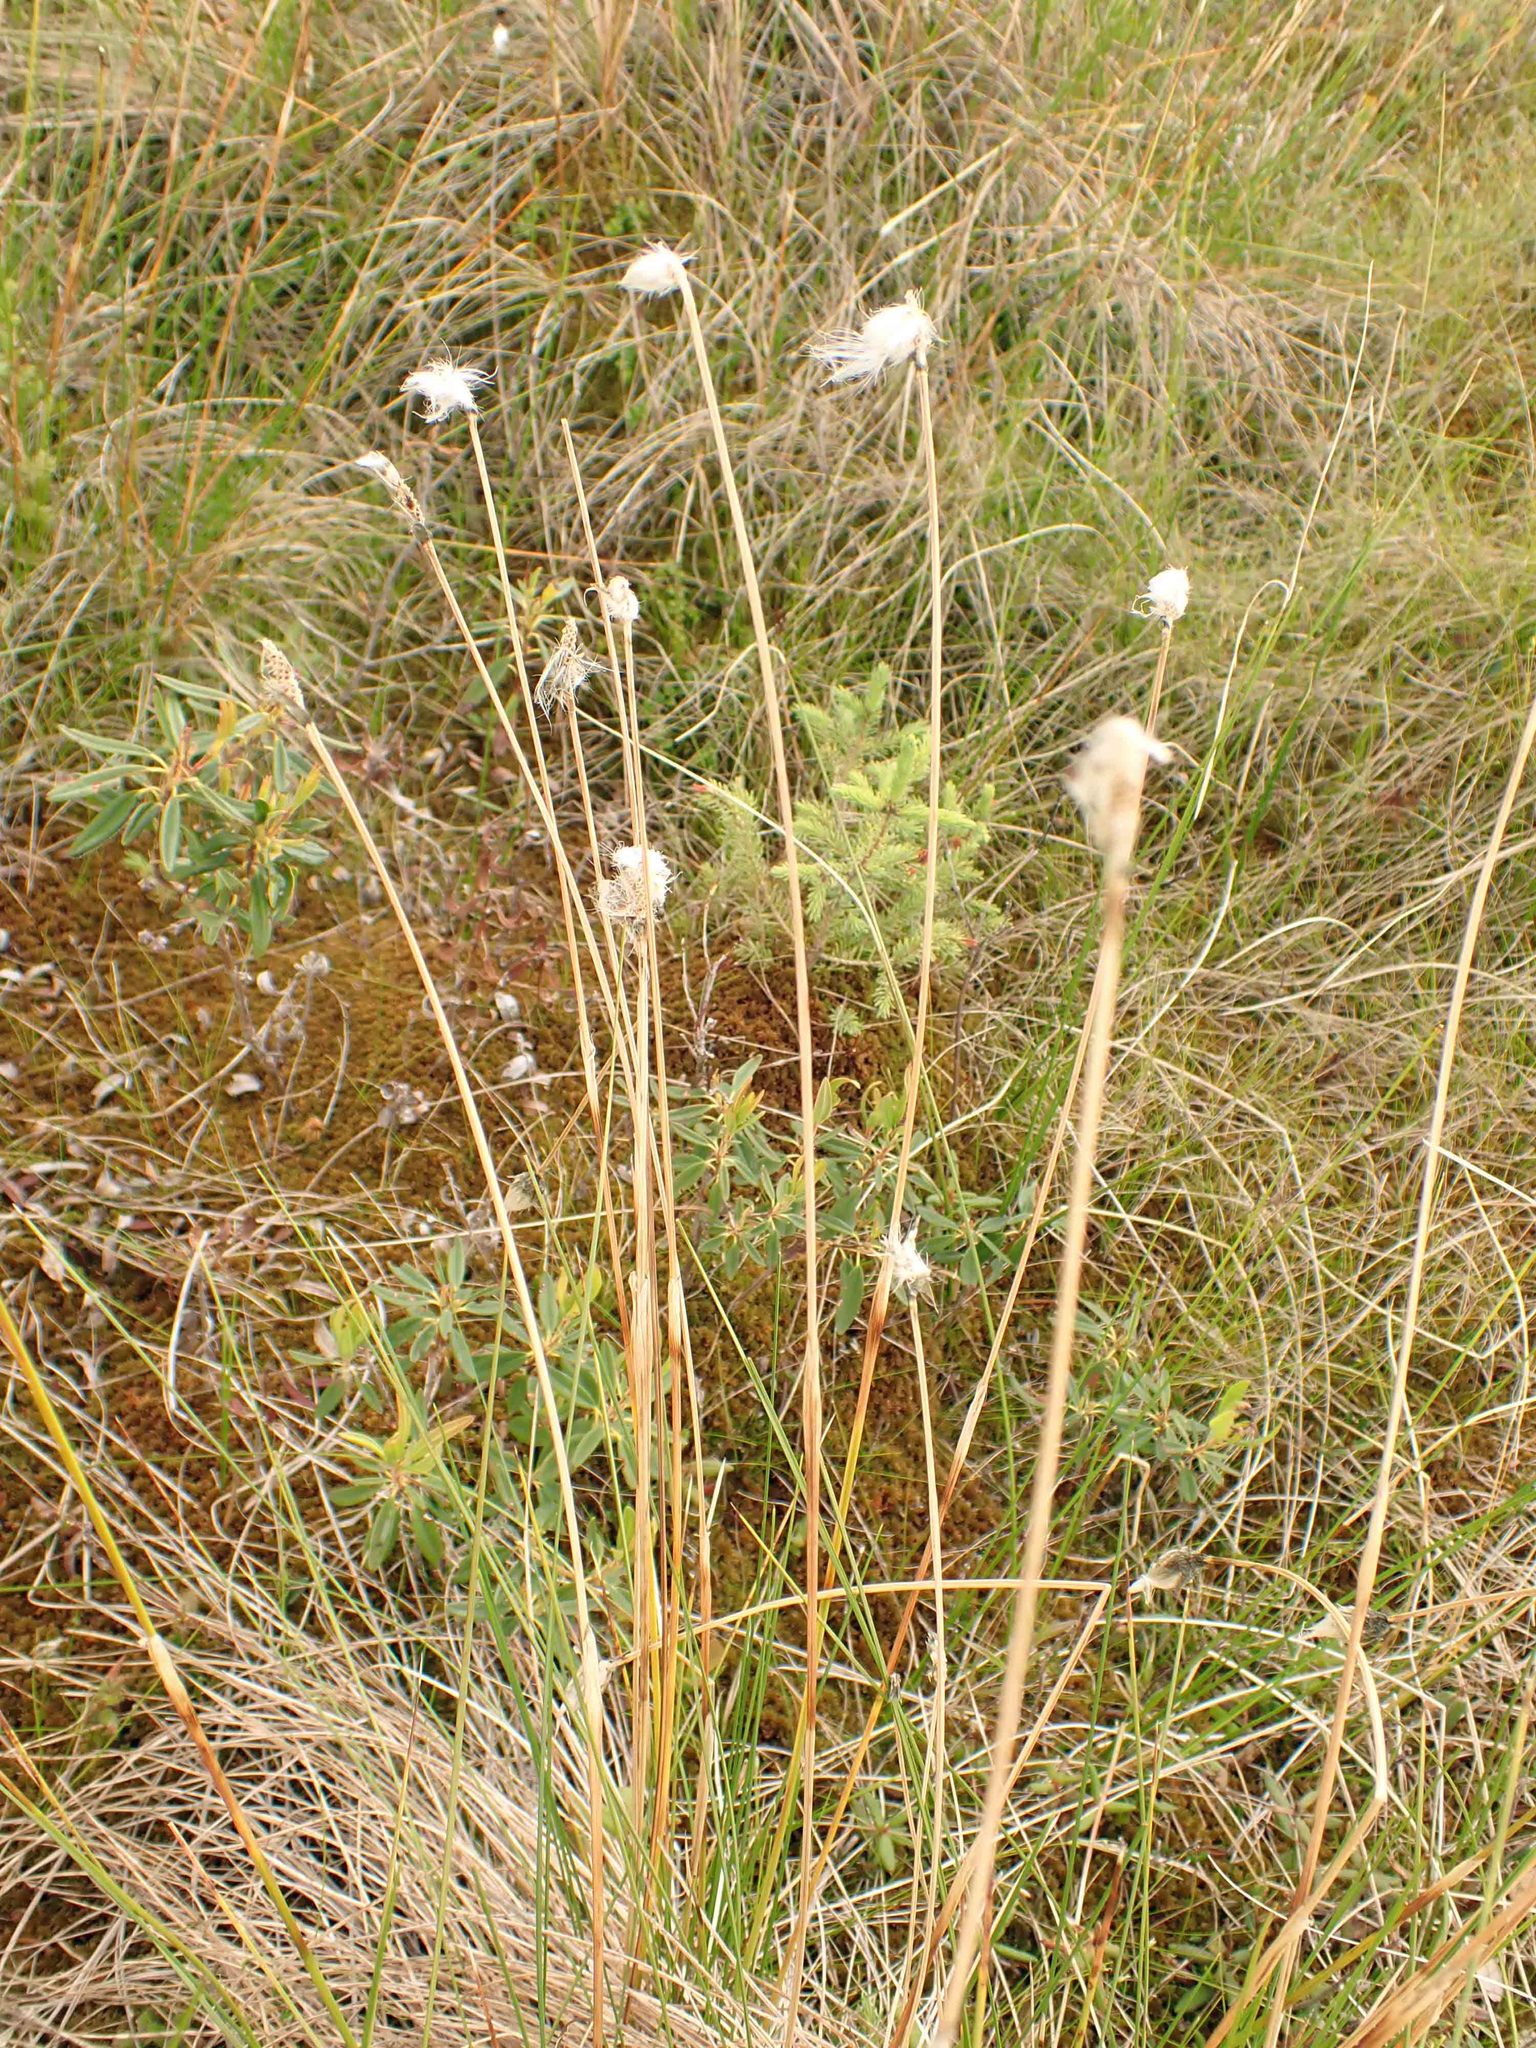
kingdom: Plantae
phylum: Tracheophyta
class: Liliopsida
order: Poales
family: Cyperaceae
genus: Eriophorum
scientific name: Eriophorum vaginatum
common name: Hare's-tail cottongrass
